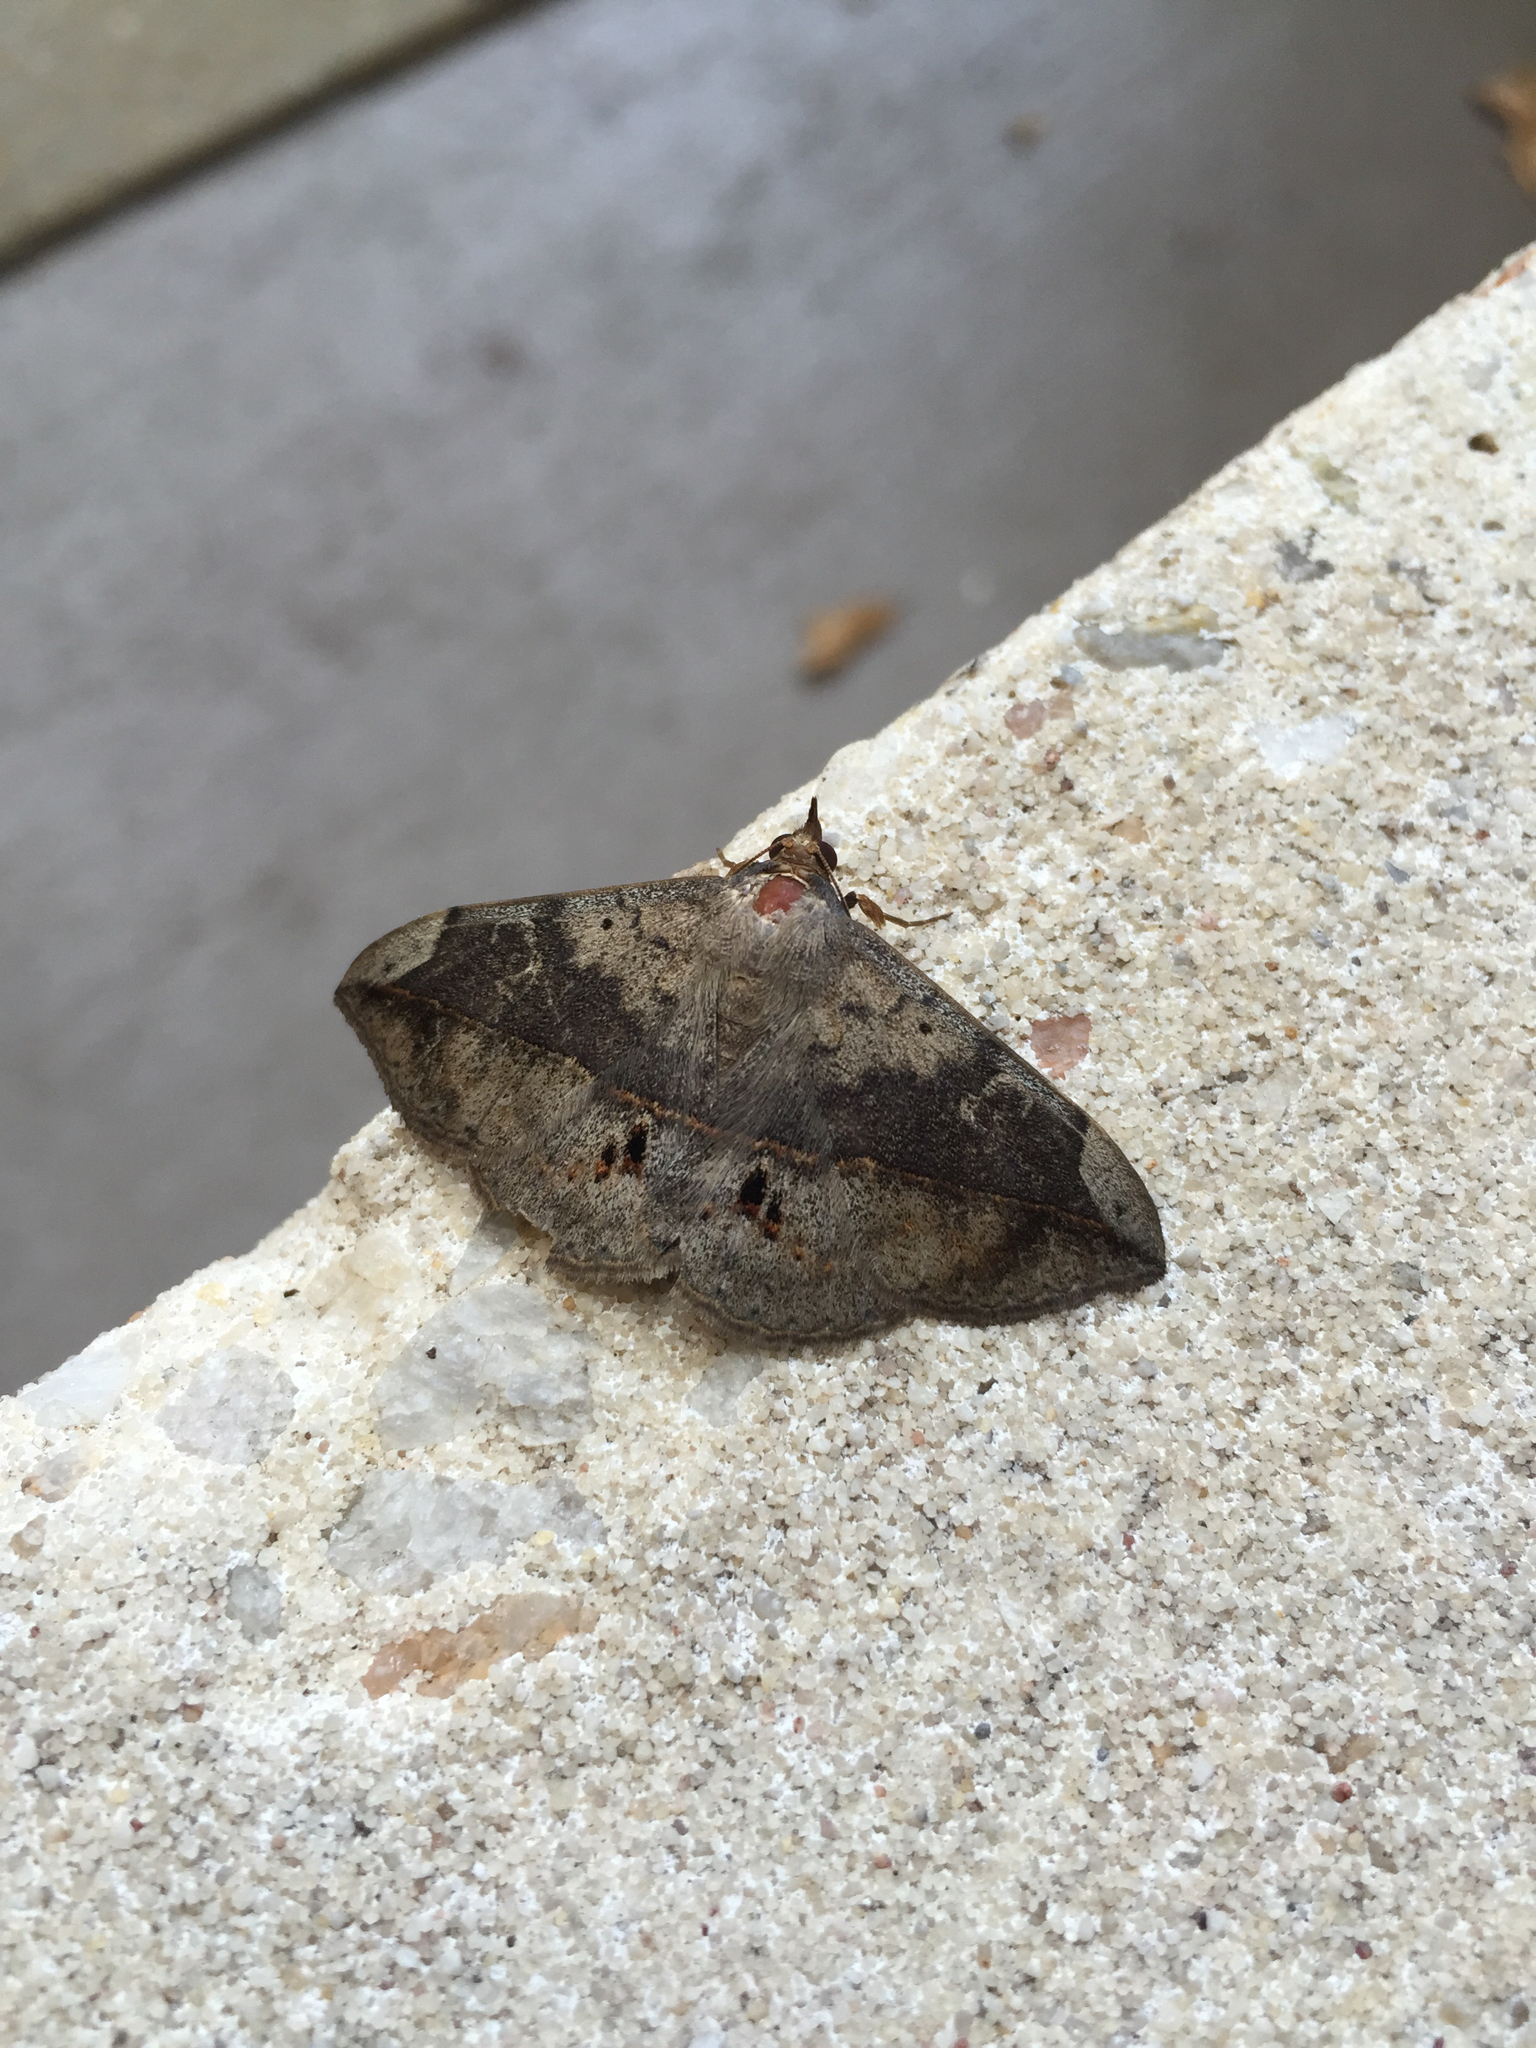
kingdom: Animalia
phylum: Arthropoda
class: Insecta
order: Lepidoptera
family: Erebidae
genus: Anticarsia
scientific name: Anticarsia gemmatalis
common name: Cutworm moth
